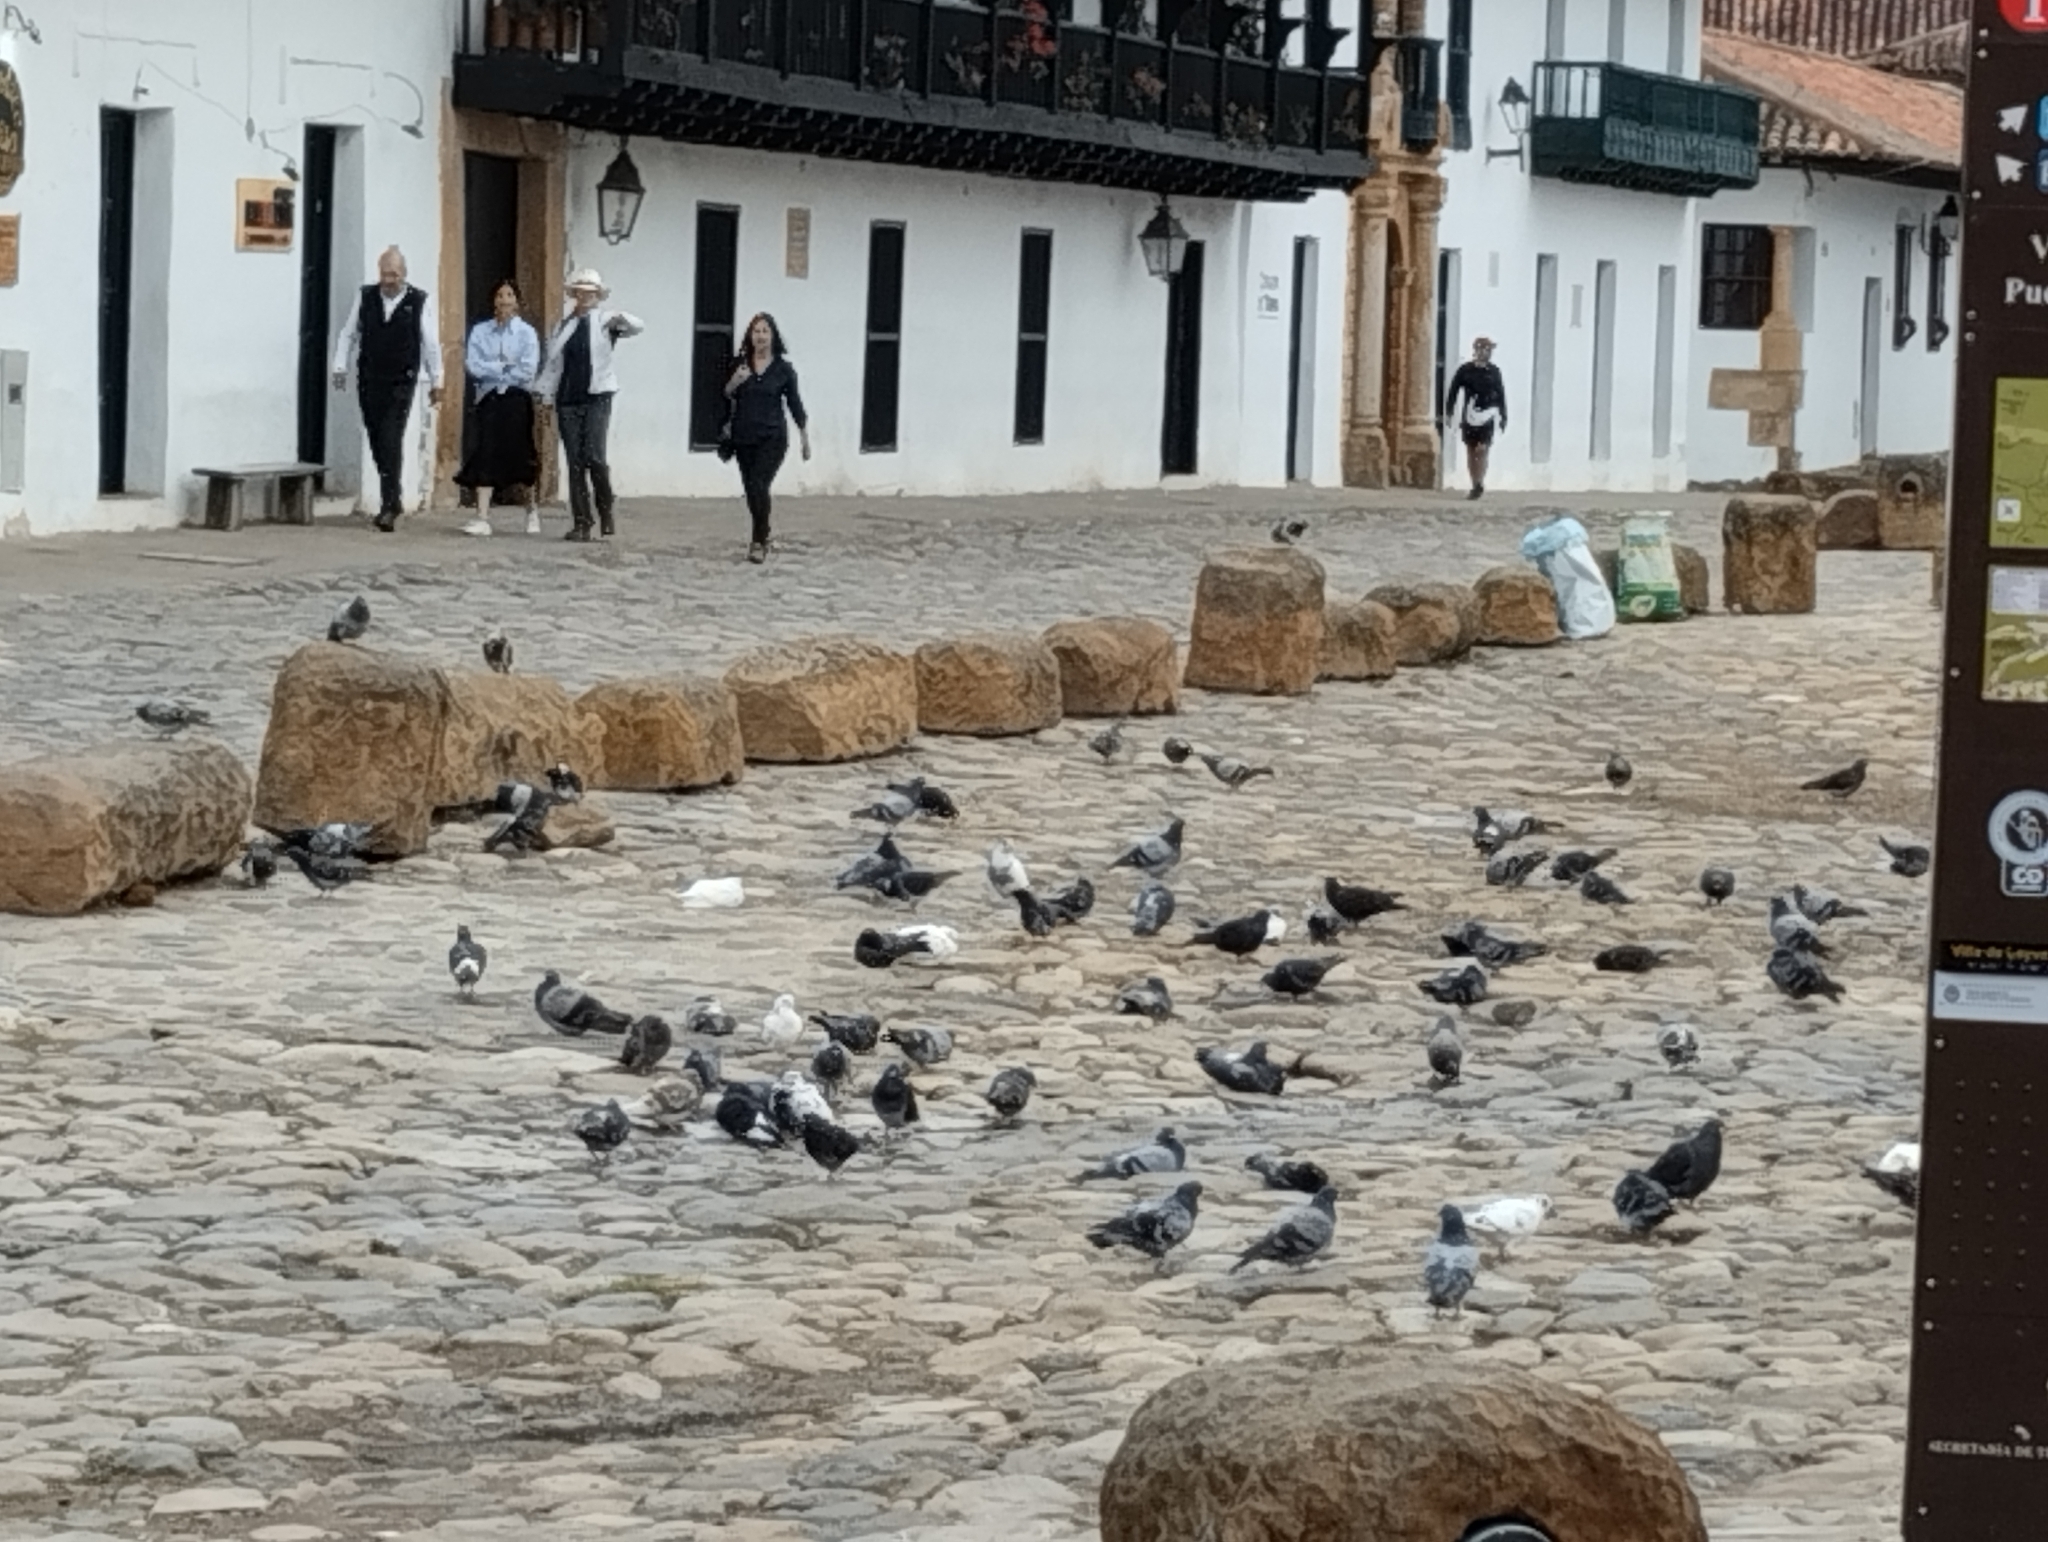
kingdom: Animalia
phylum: Chordata
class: Aves
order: Columbiformes
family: Columbidae
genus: Columba
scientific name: Columba livia
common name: Rock pigeon
